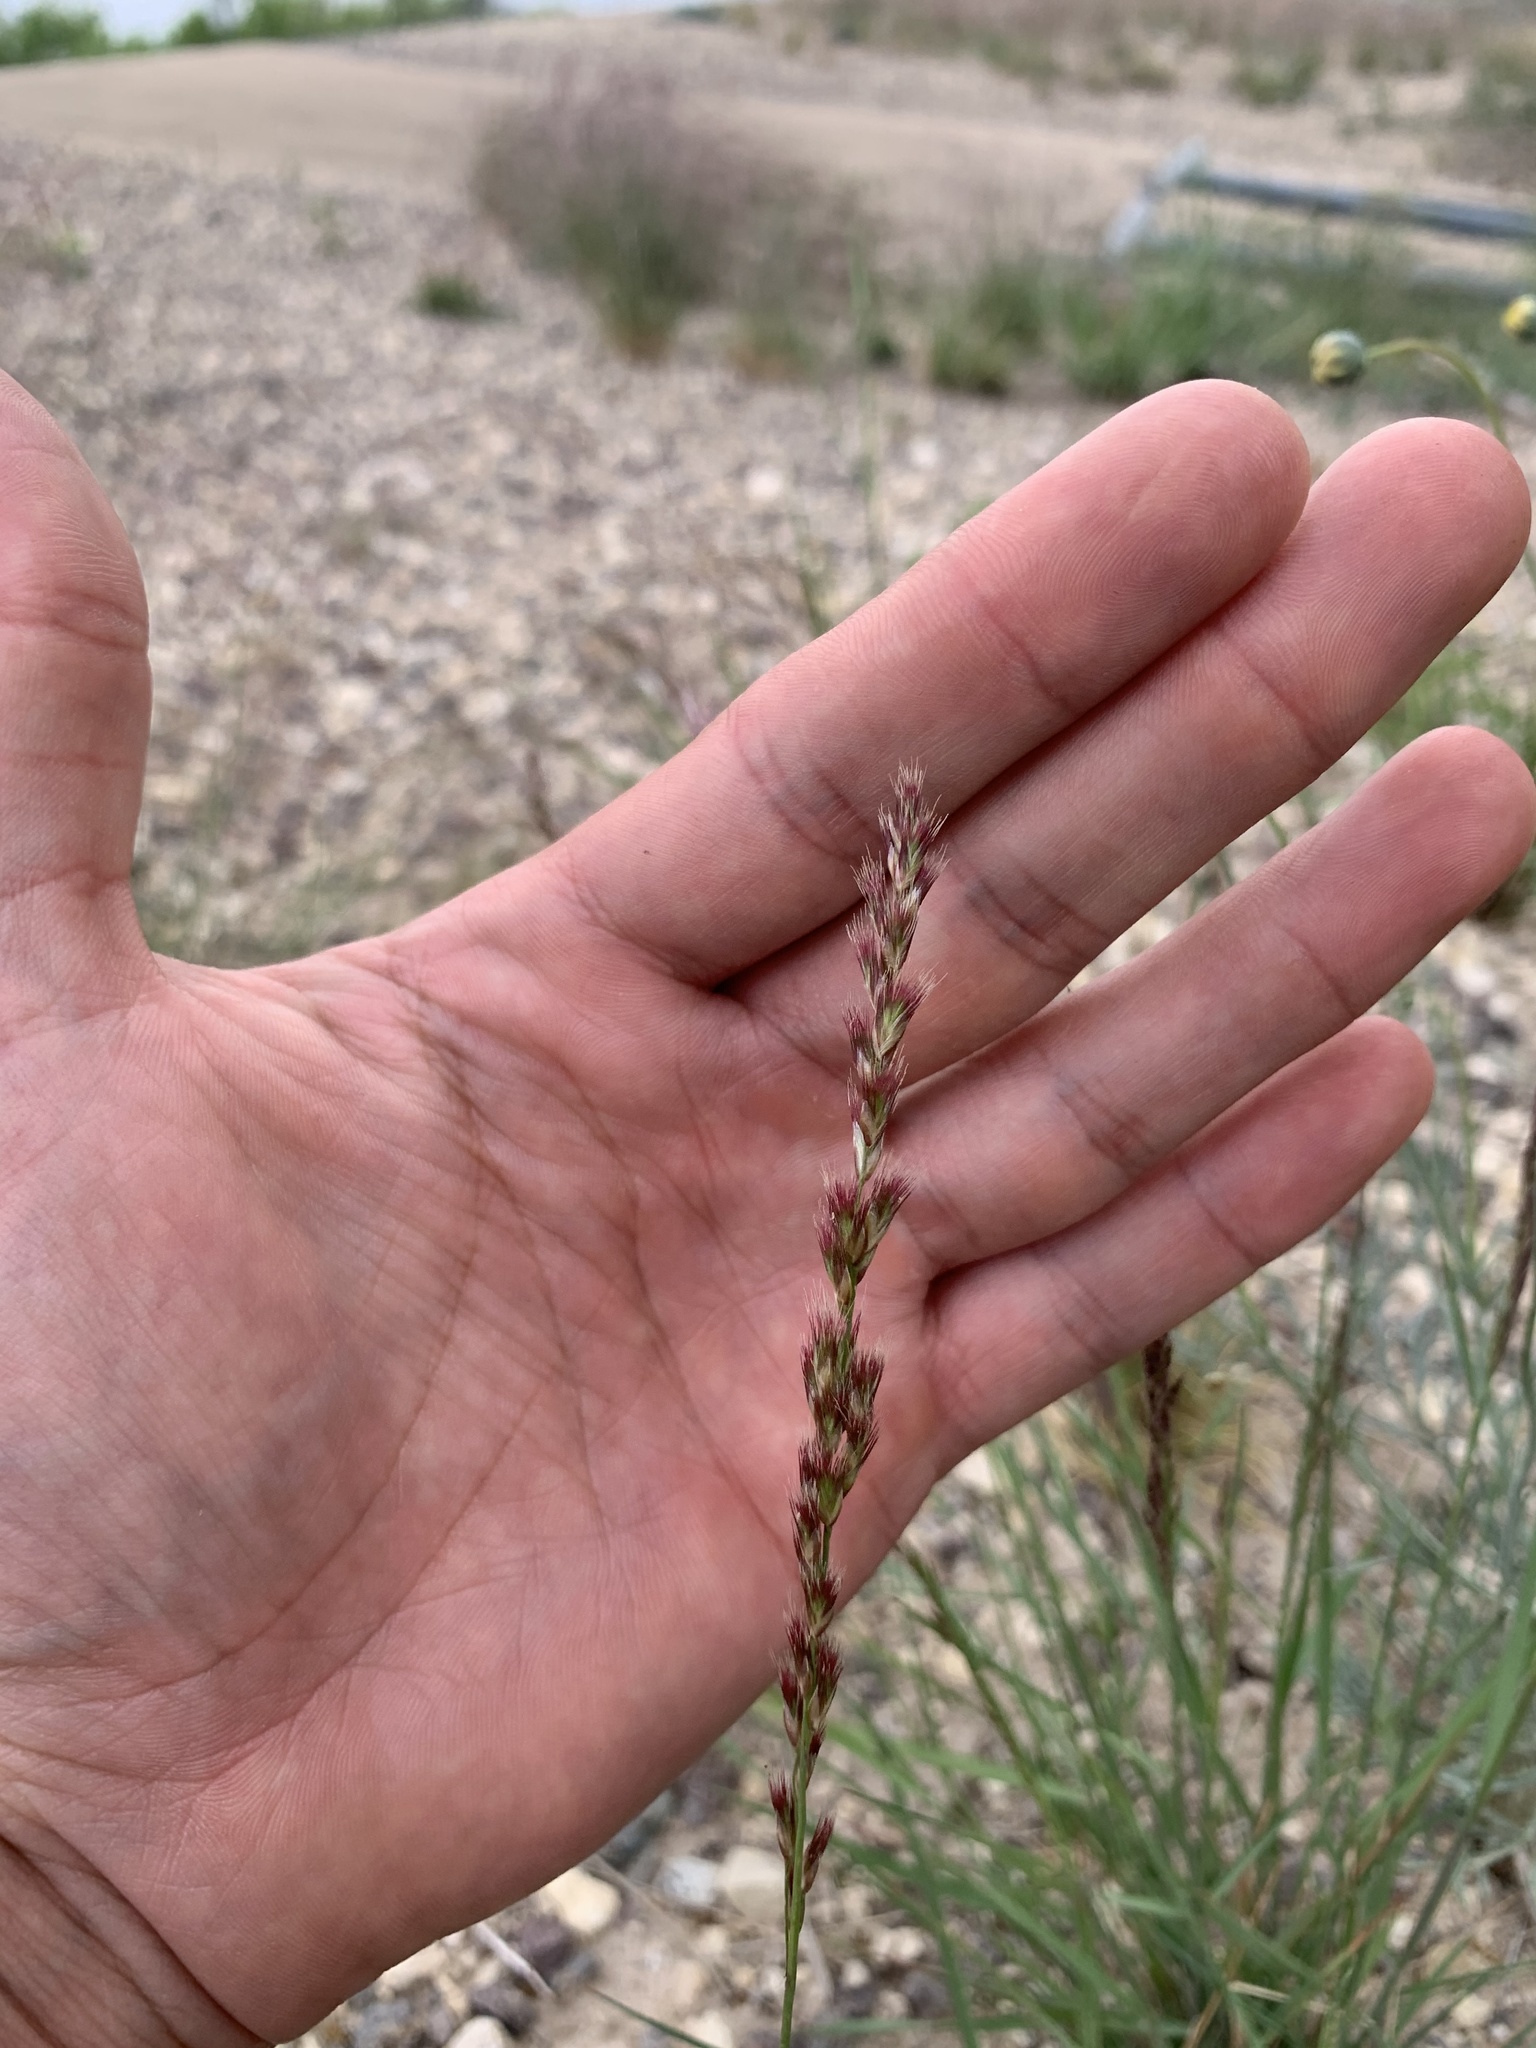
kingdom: Plantae
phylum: Tracheophyta
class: Liliopsida
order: Poales
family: Poaceae
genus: Pappophorum
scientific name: Pappophorum bicolor
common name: Pink pappus grass
